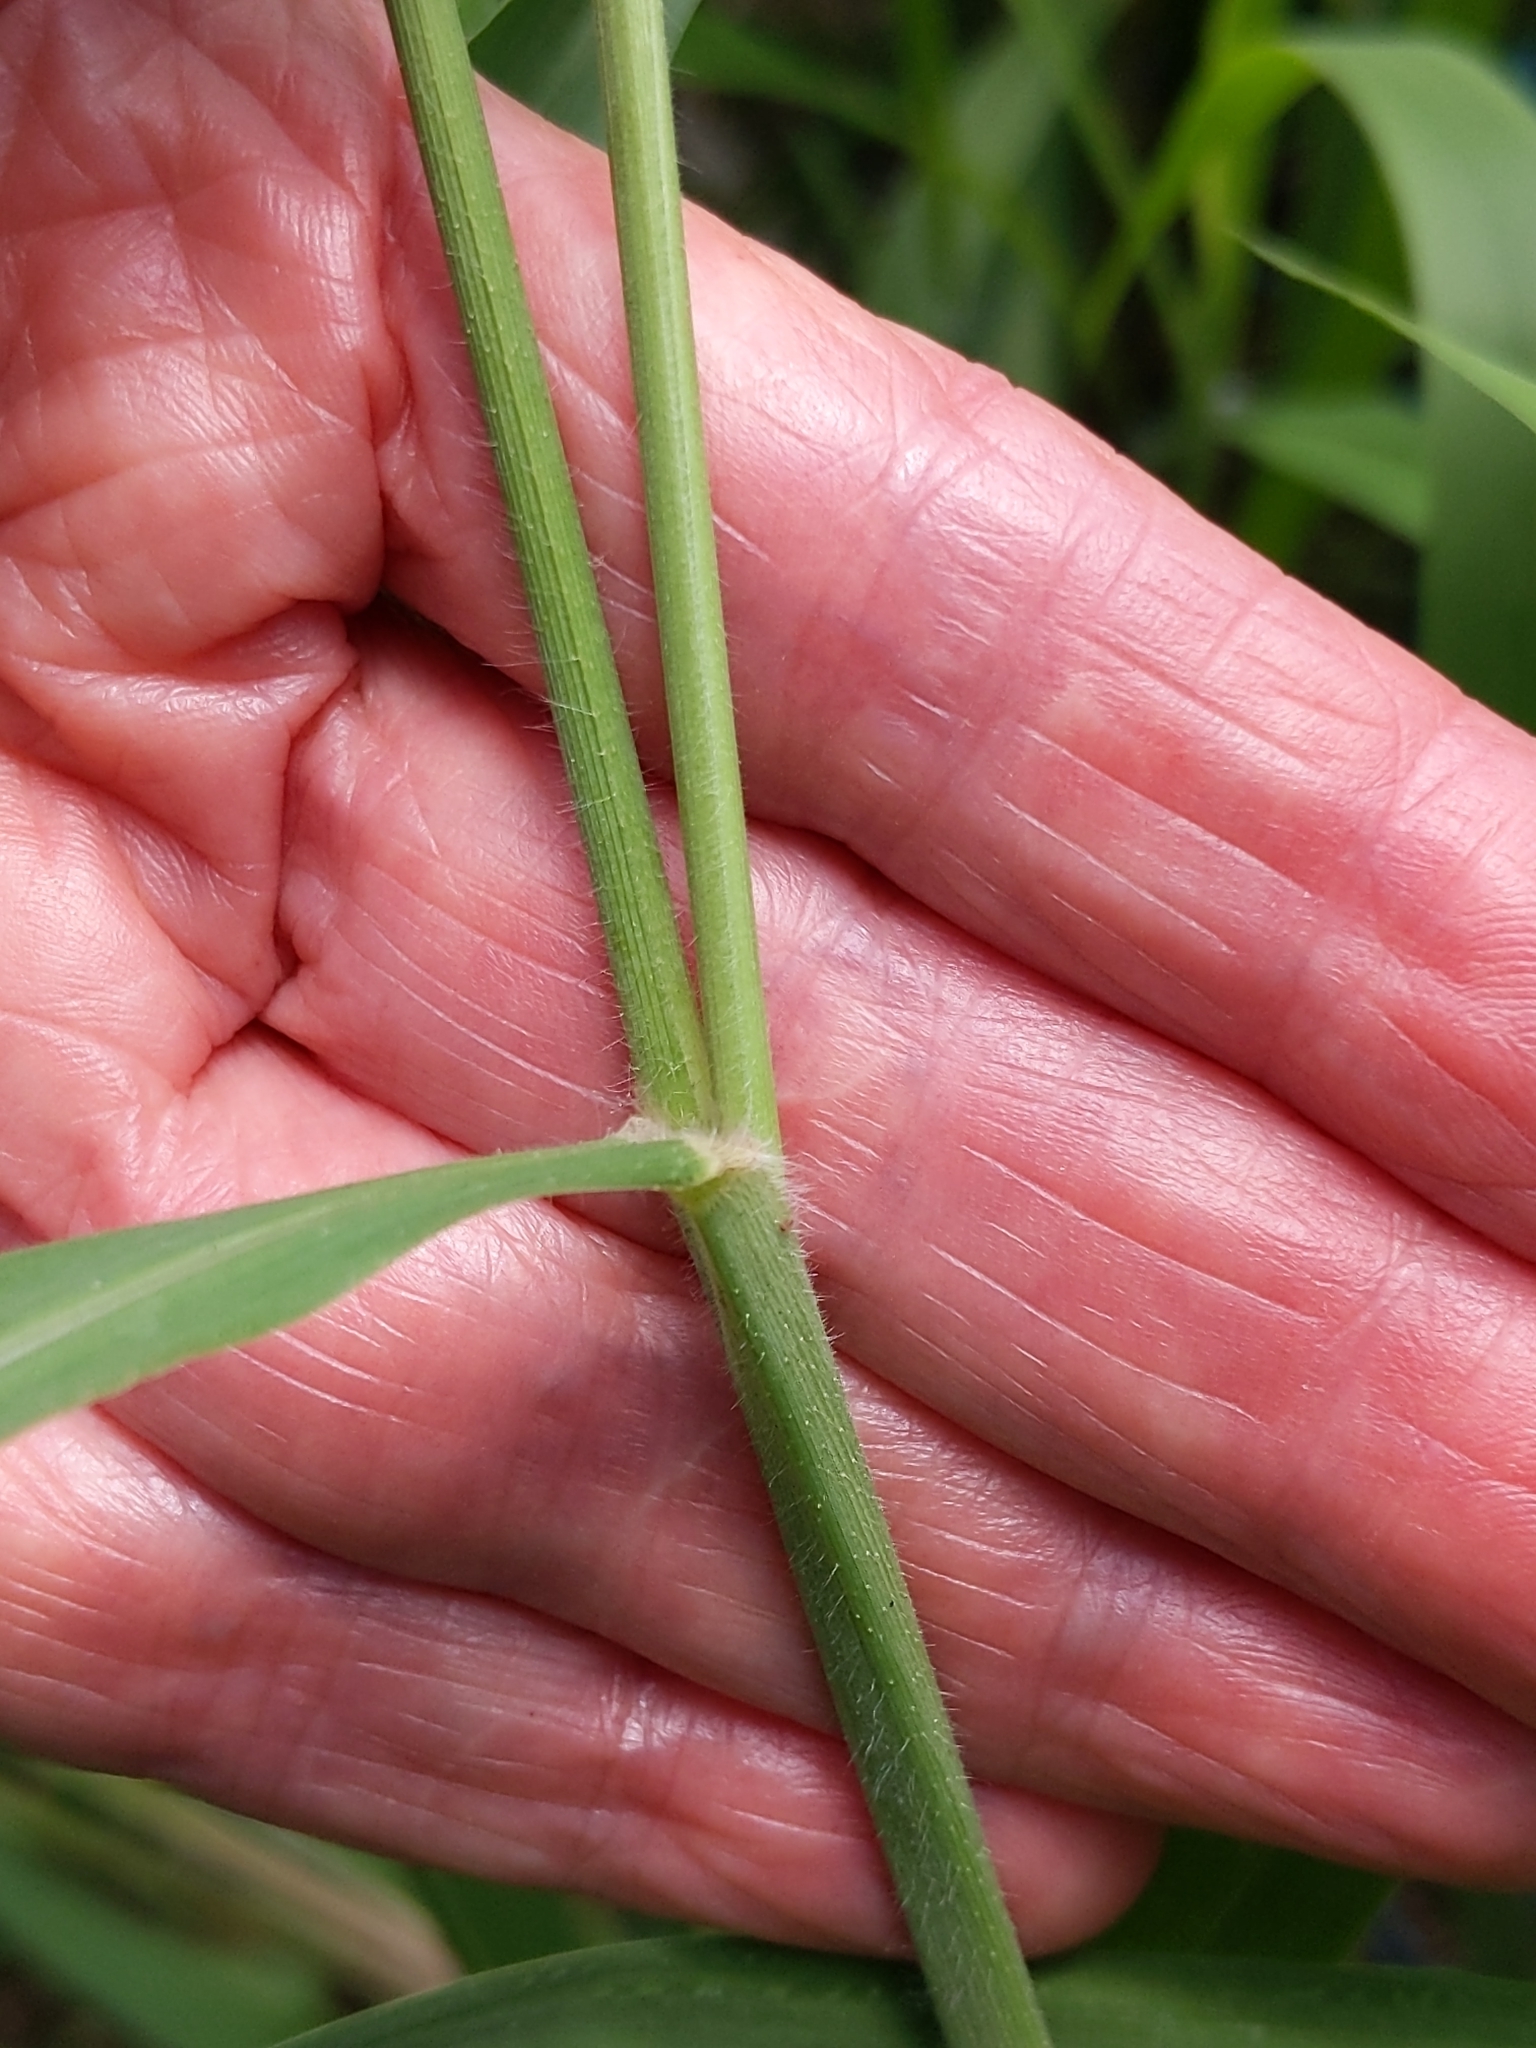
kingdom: Plantae
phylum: Tracheophyta
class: Liliopsida
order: Poales
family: Poaceae
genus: Megathyrsus
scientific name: Megathyrsus maximus
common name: Guineagrass
